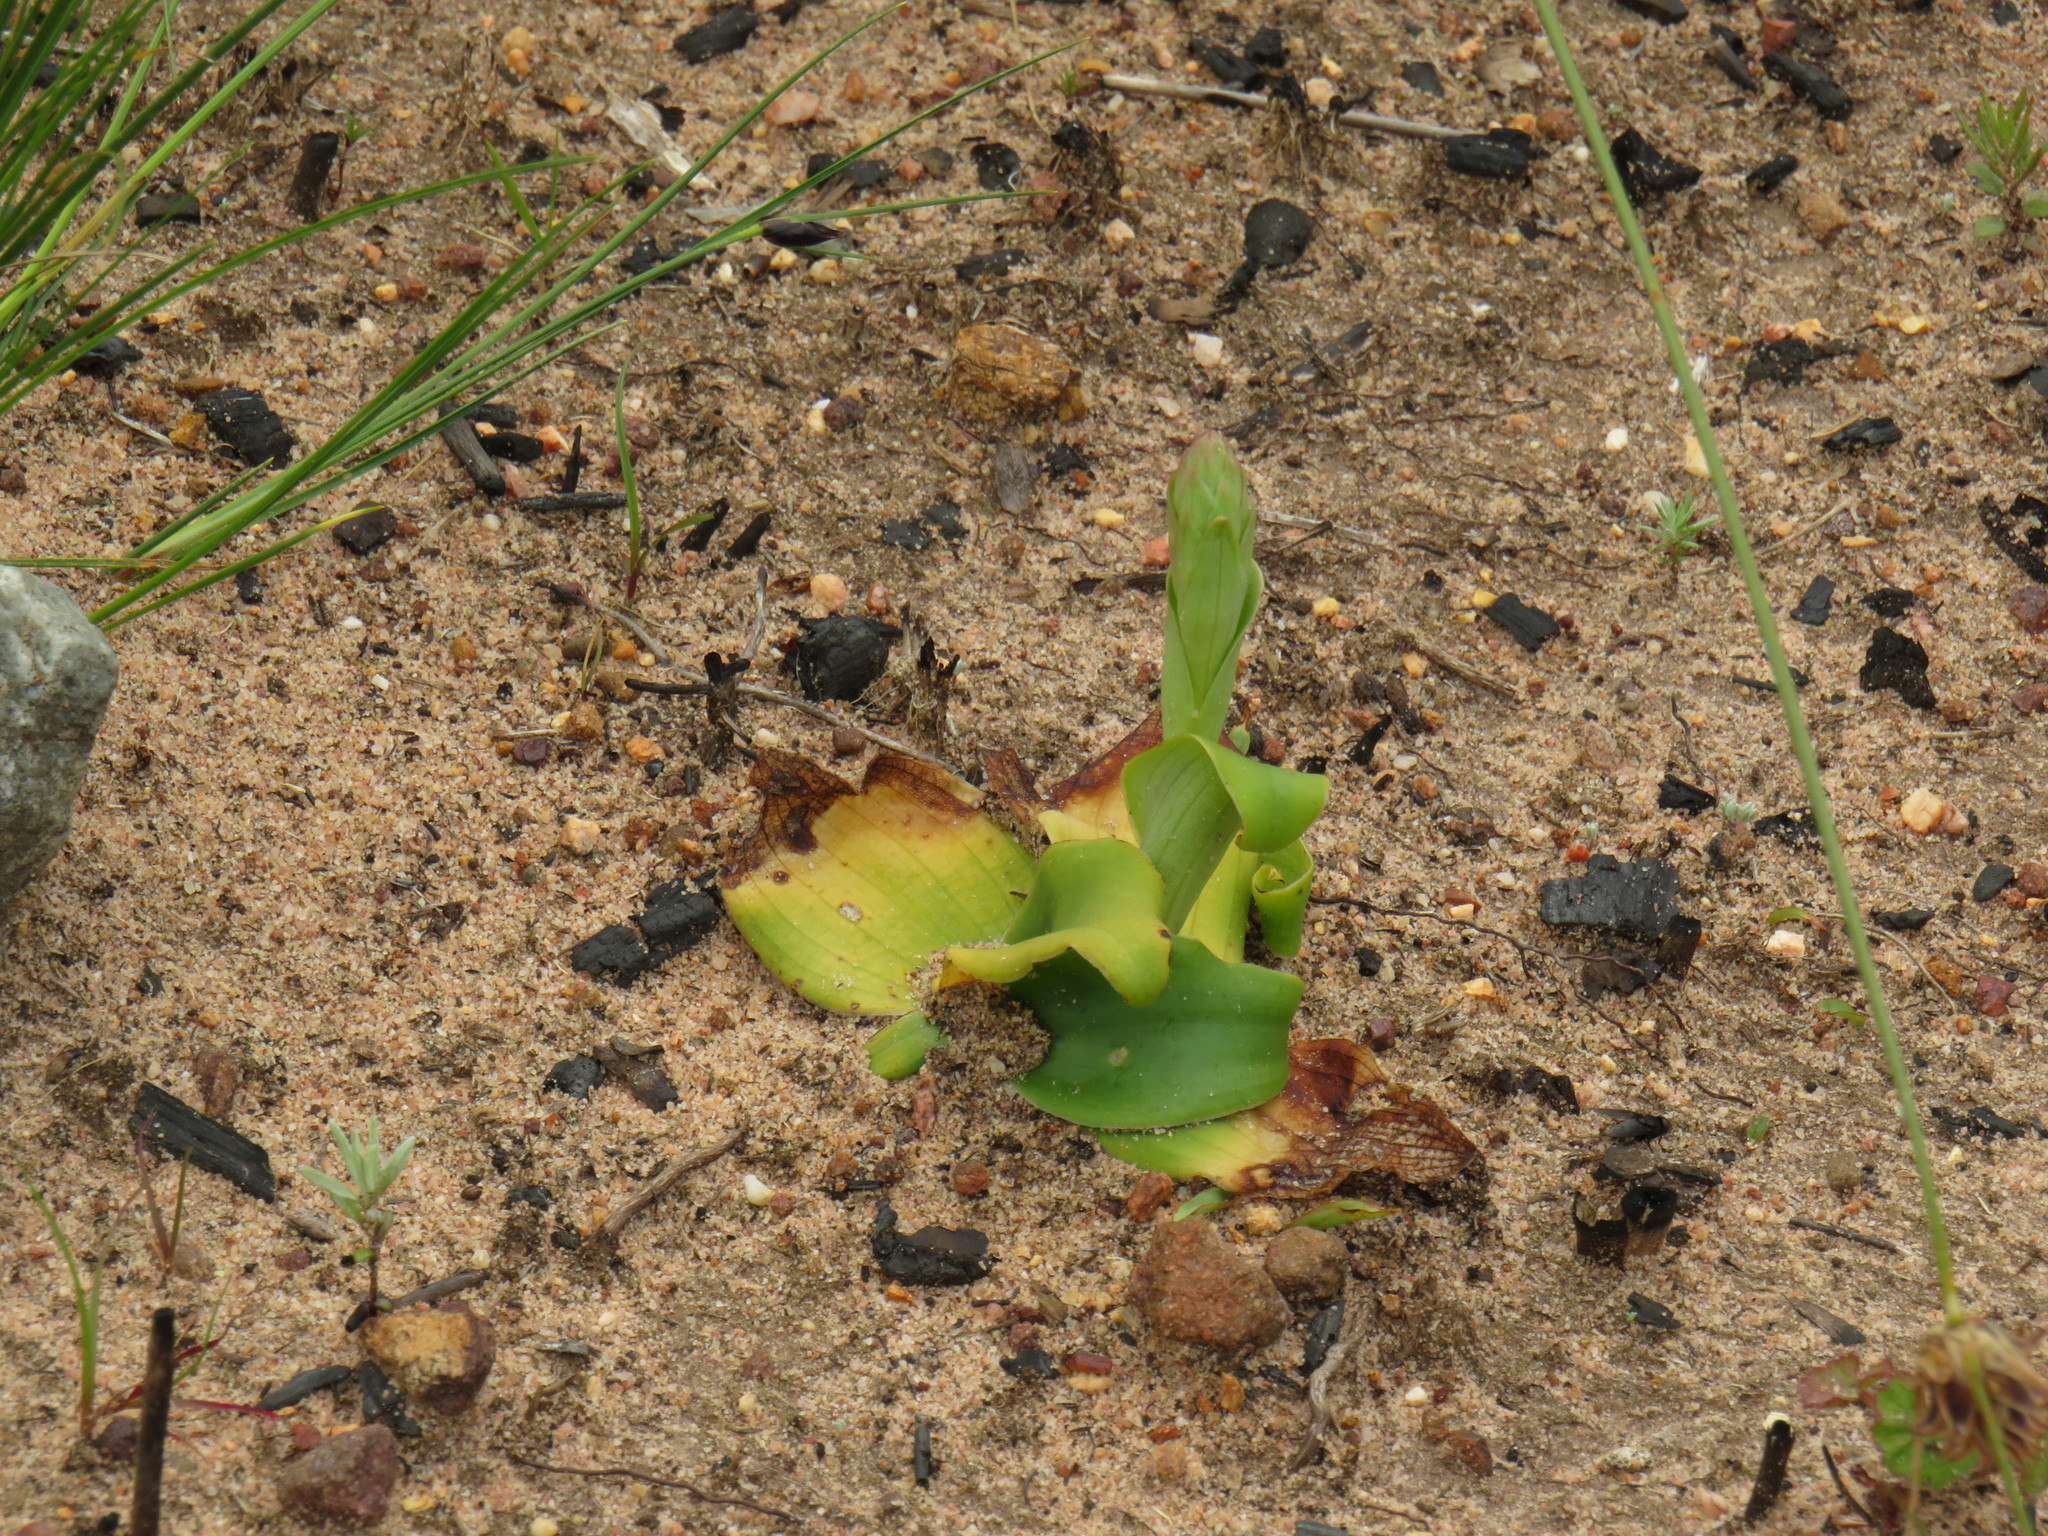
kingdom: Plantae
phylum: Tracheophyta
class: Liliopsida
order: Asparagales
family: Orchidaceae
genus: Satyrium
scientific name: Satyrium humile
